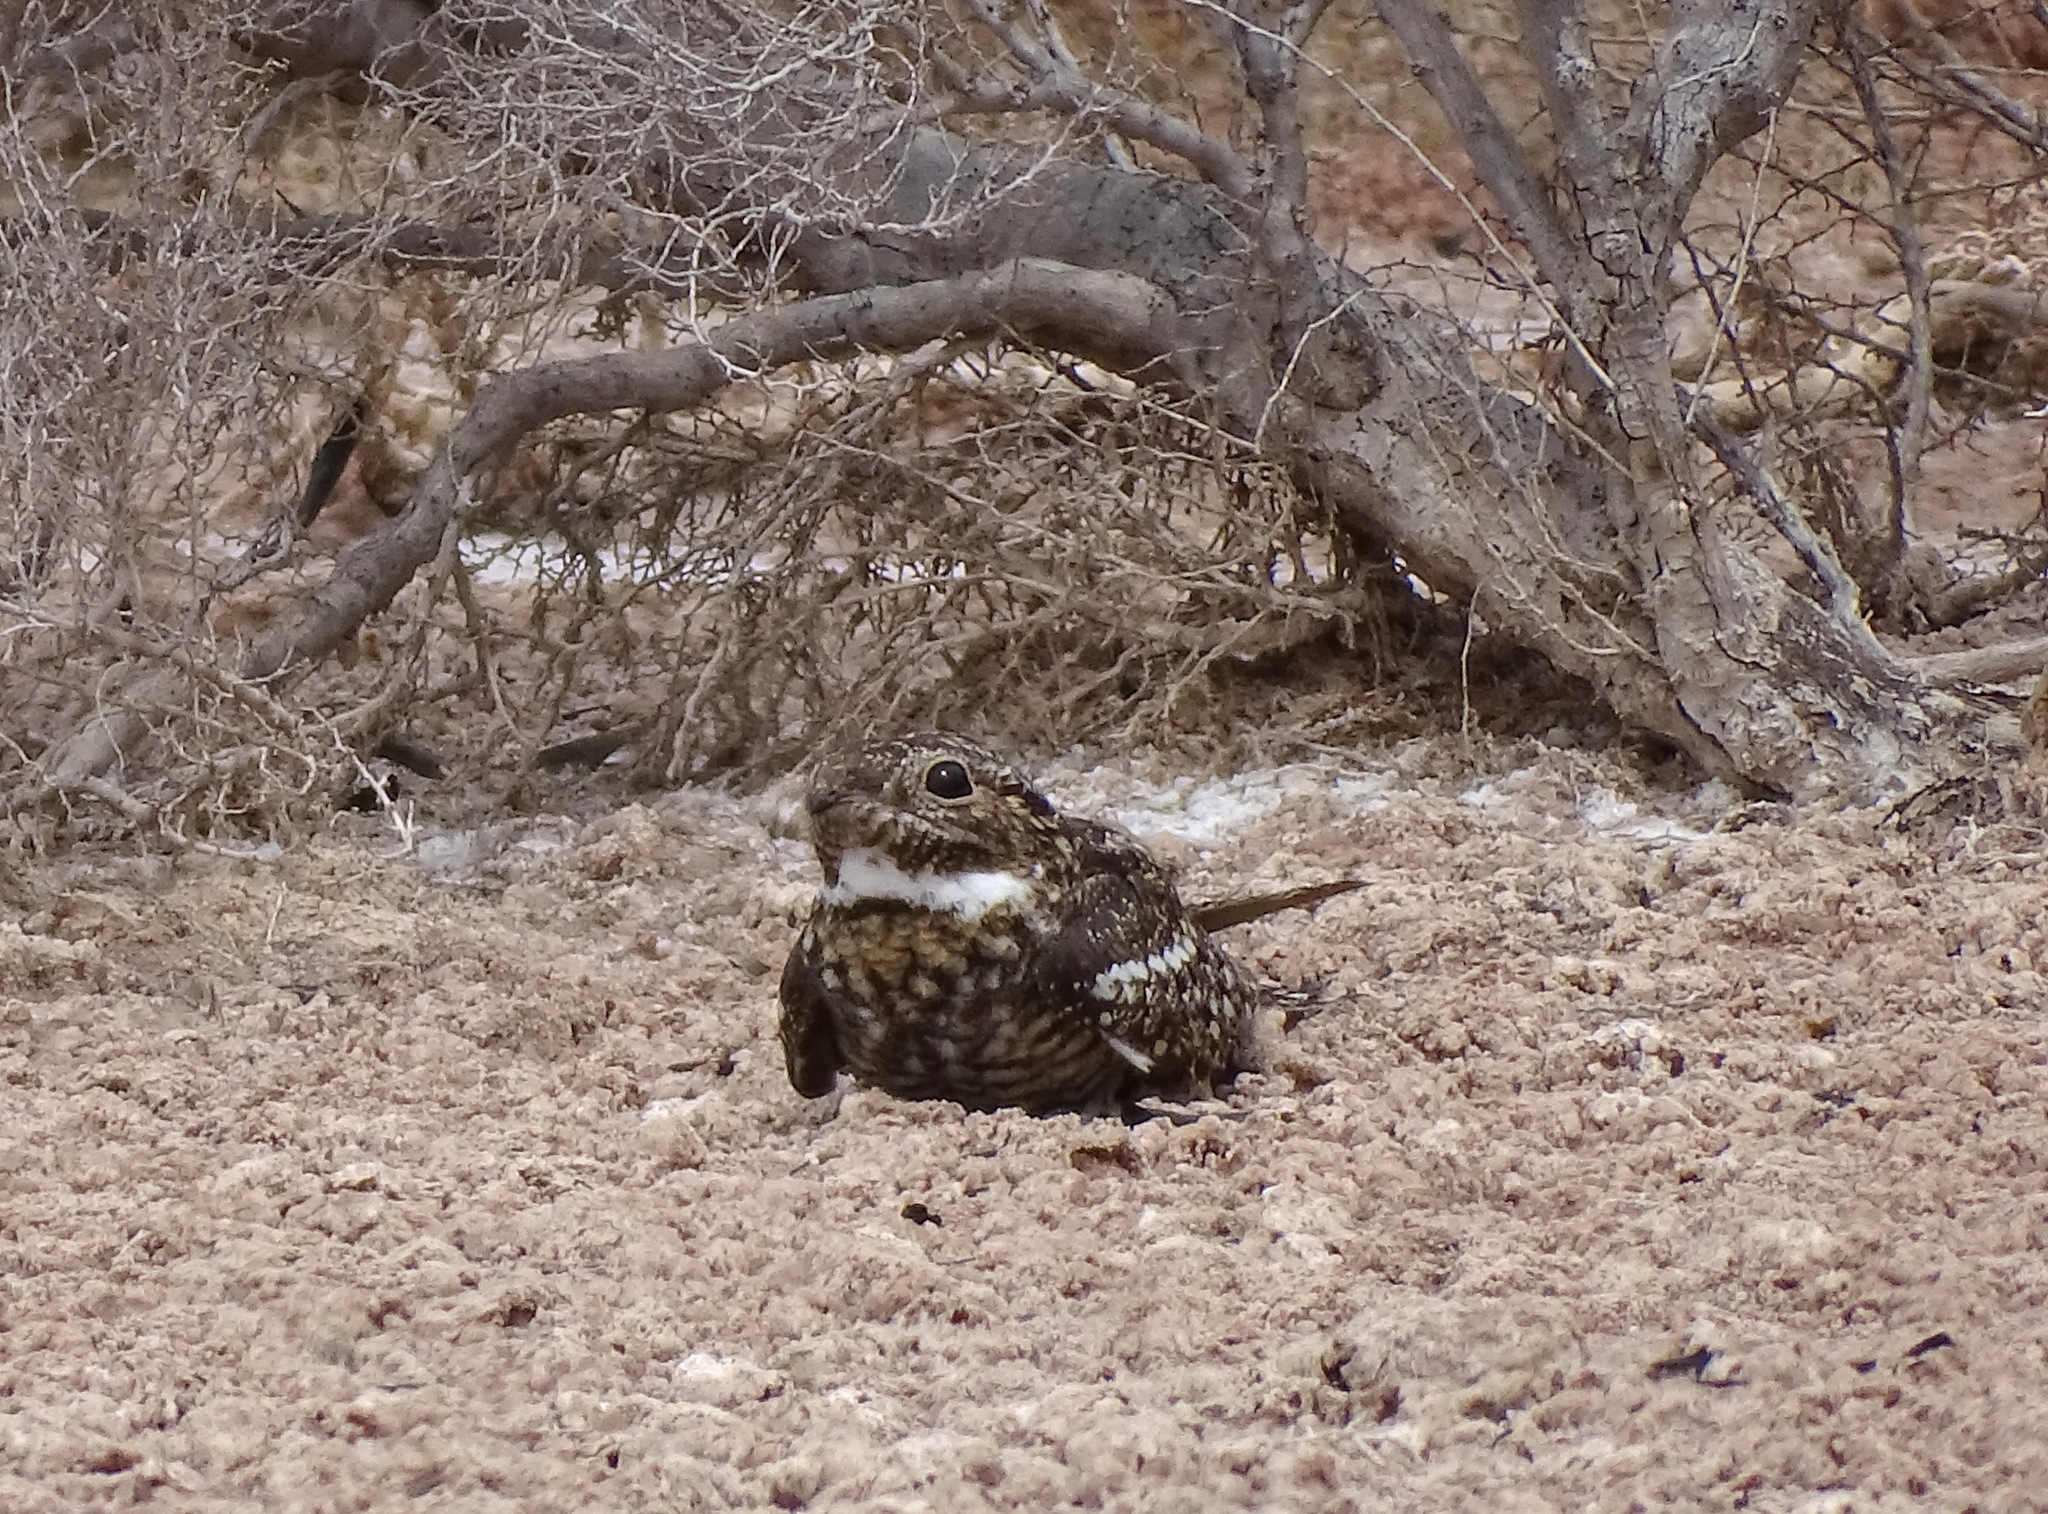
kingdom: Animalia
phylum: Chordata
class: Aves
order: Caprimulgiformes
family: Caprimulgidae
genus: Chordeiles
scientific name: Chordeiles acutipennis
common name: Lesser nighthawk
